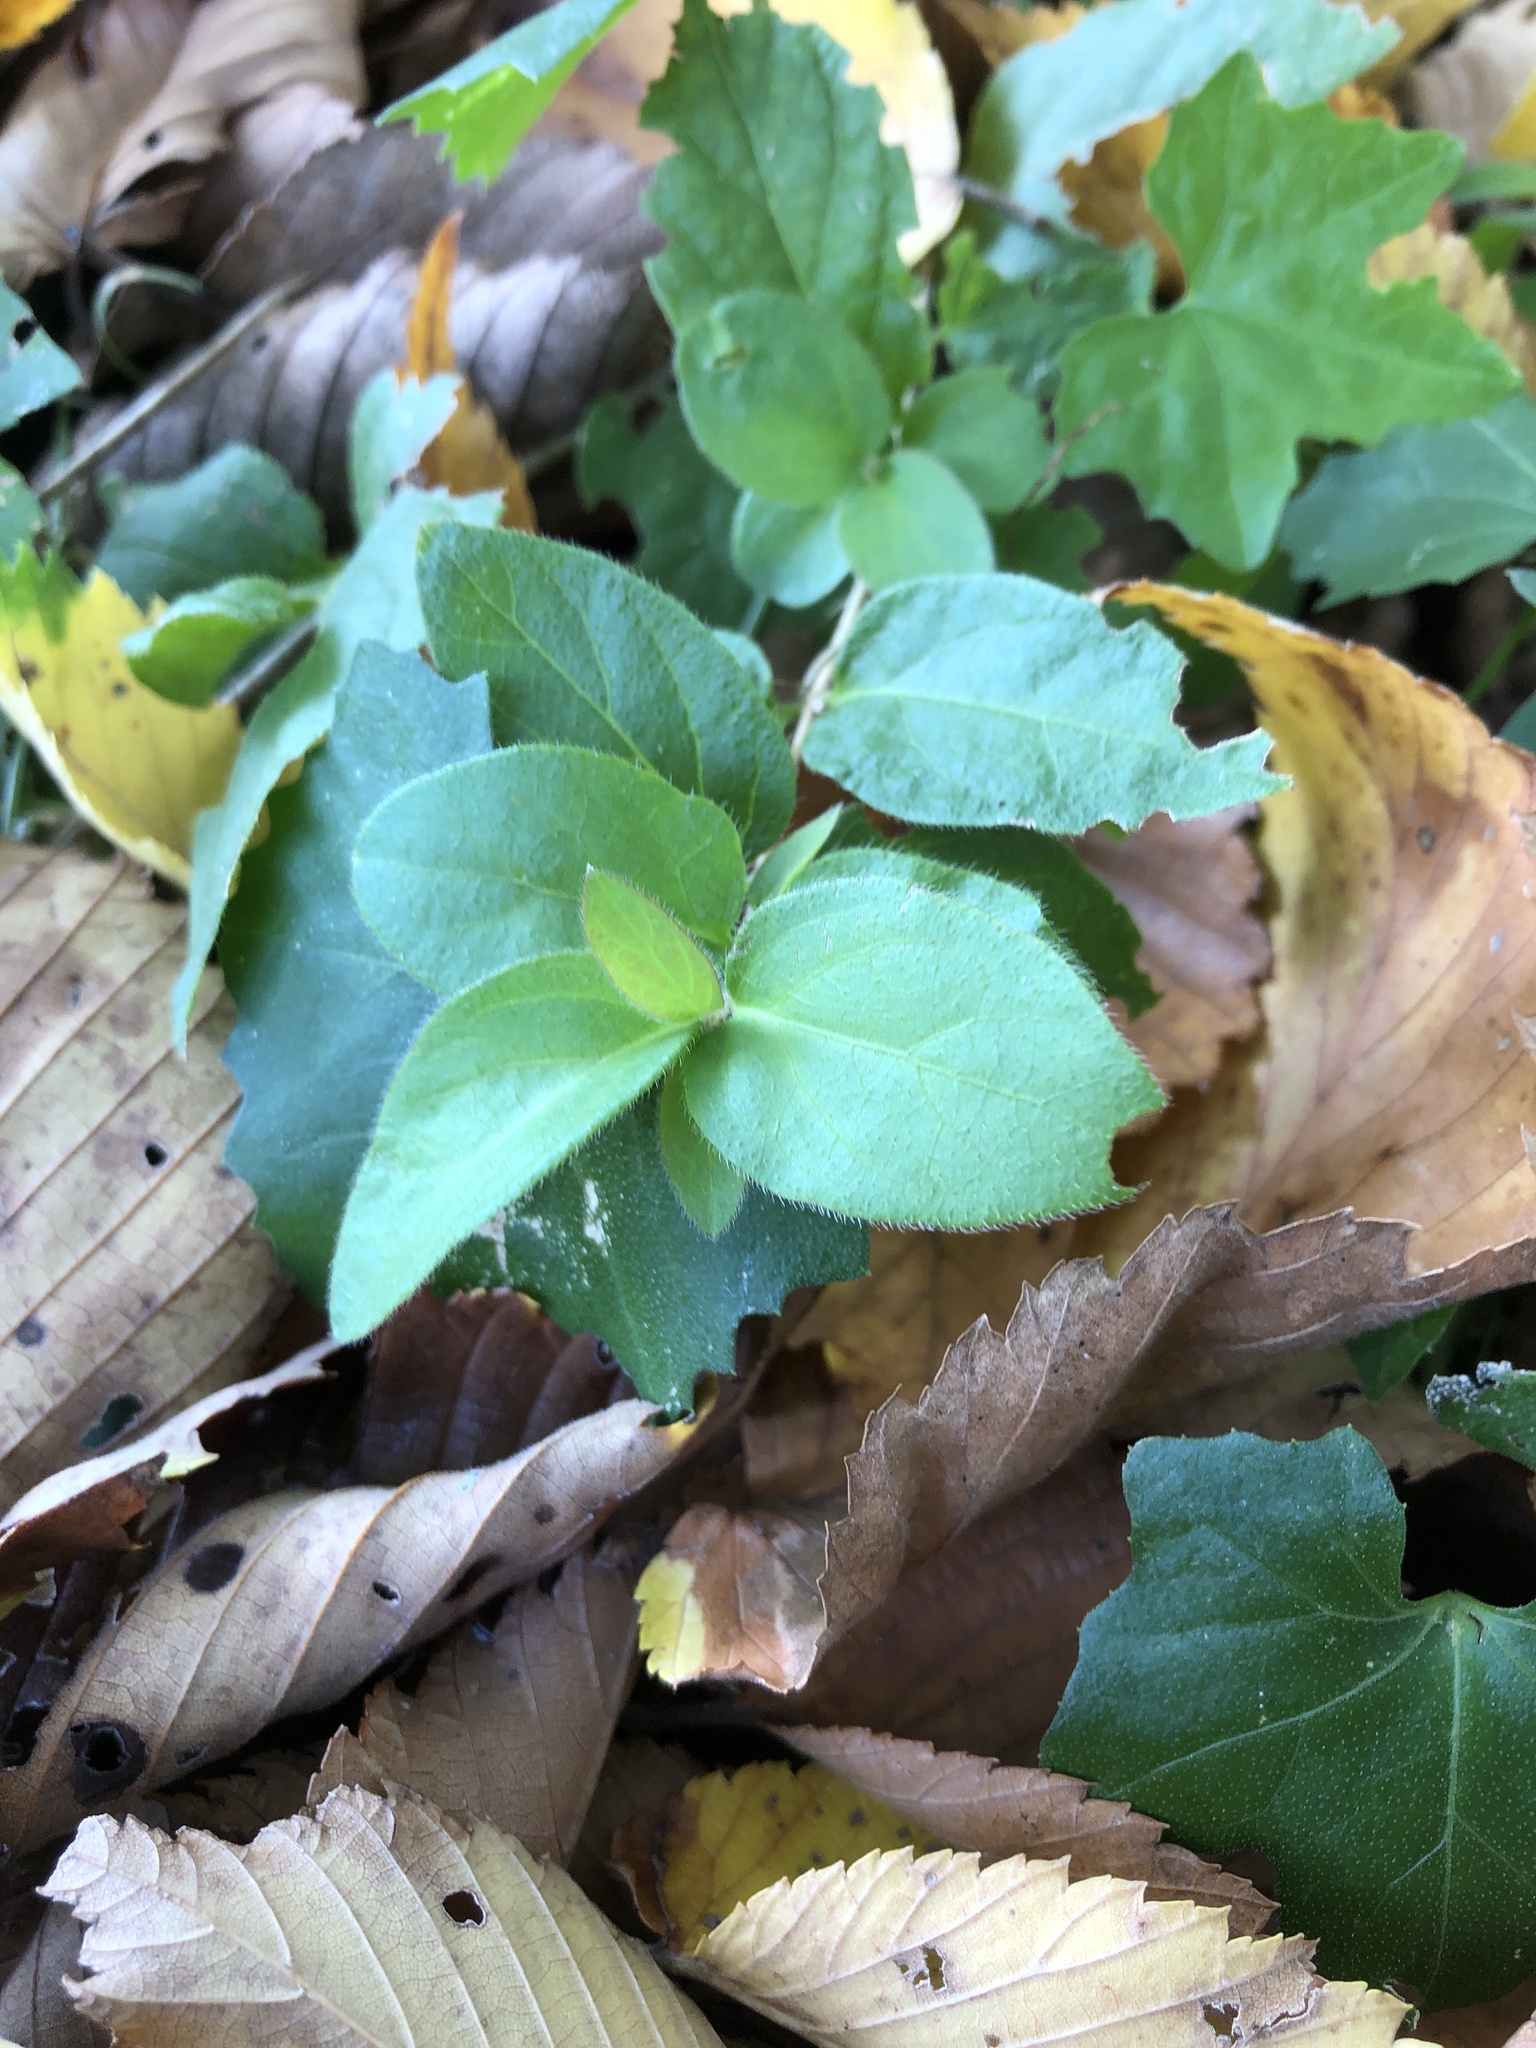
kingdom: Plantae
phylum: Tracheophyta
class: Magnoliopsida
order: Dipsacales
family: Caprifoliaceae
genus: Lonicera
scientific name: Lonicera japonica
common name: Japanese honeysuckle
